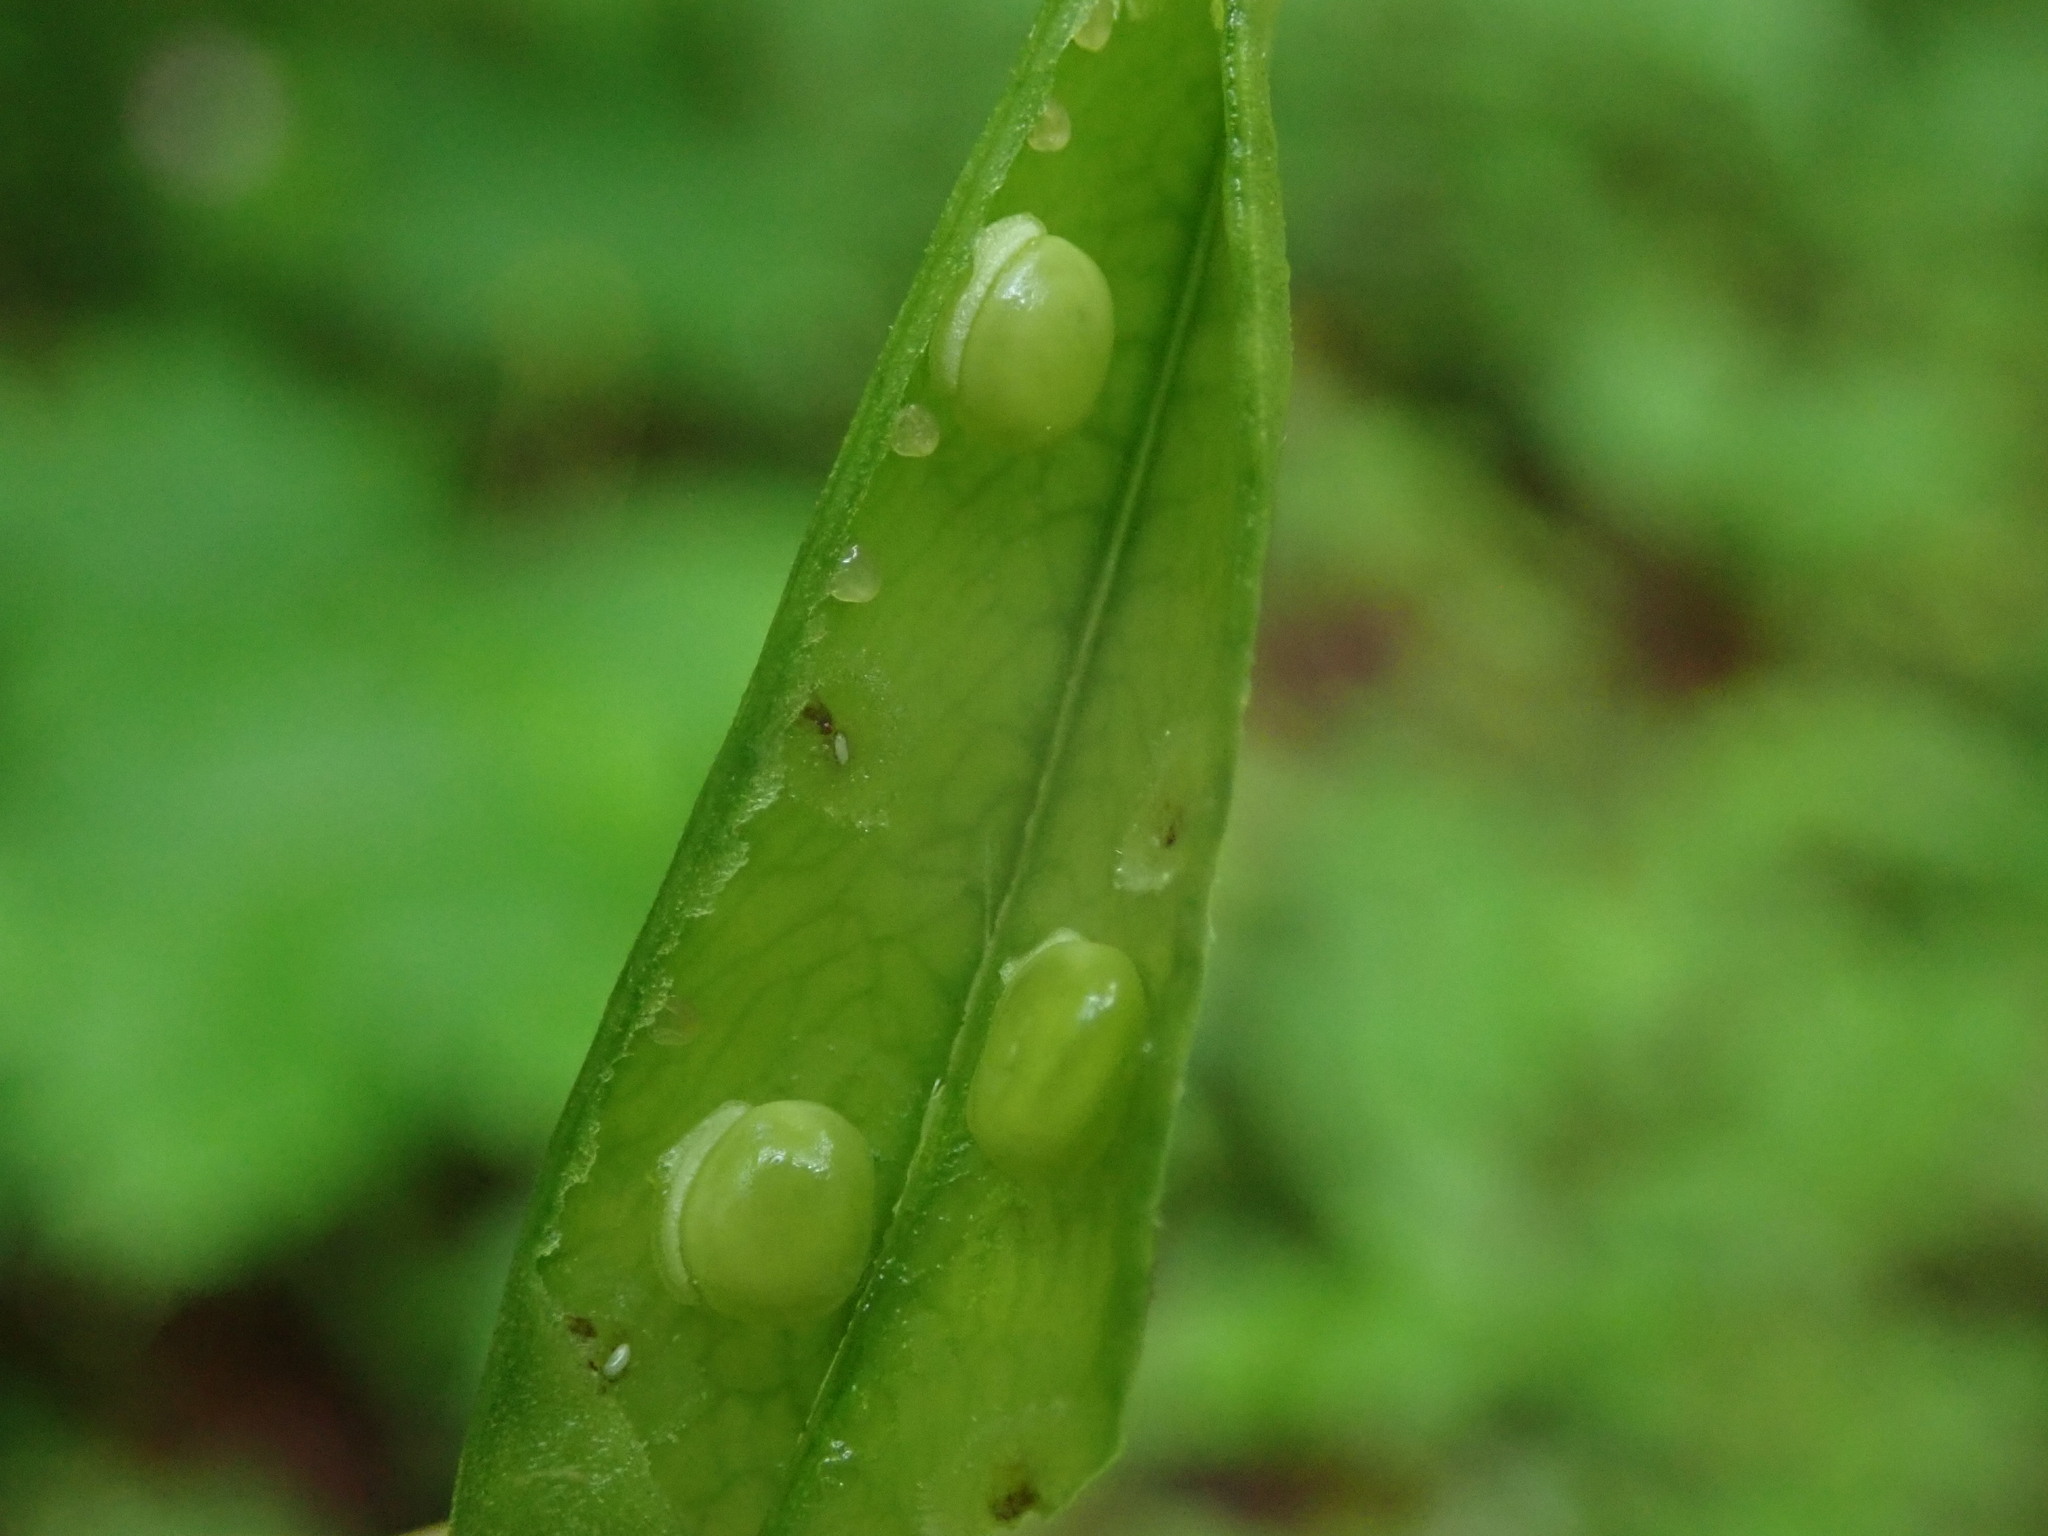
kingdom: Plantae
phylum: Tracheophyta
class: Magnoliopsida
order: Fabales
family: Fabaceae
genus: Lathyrus
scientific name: Lathyrus vernus
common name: Spring pea
